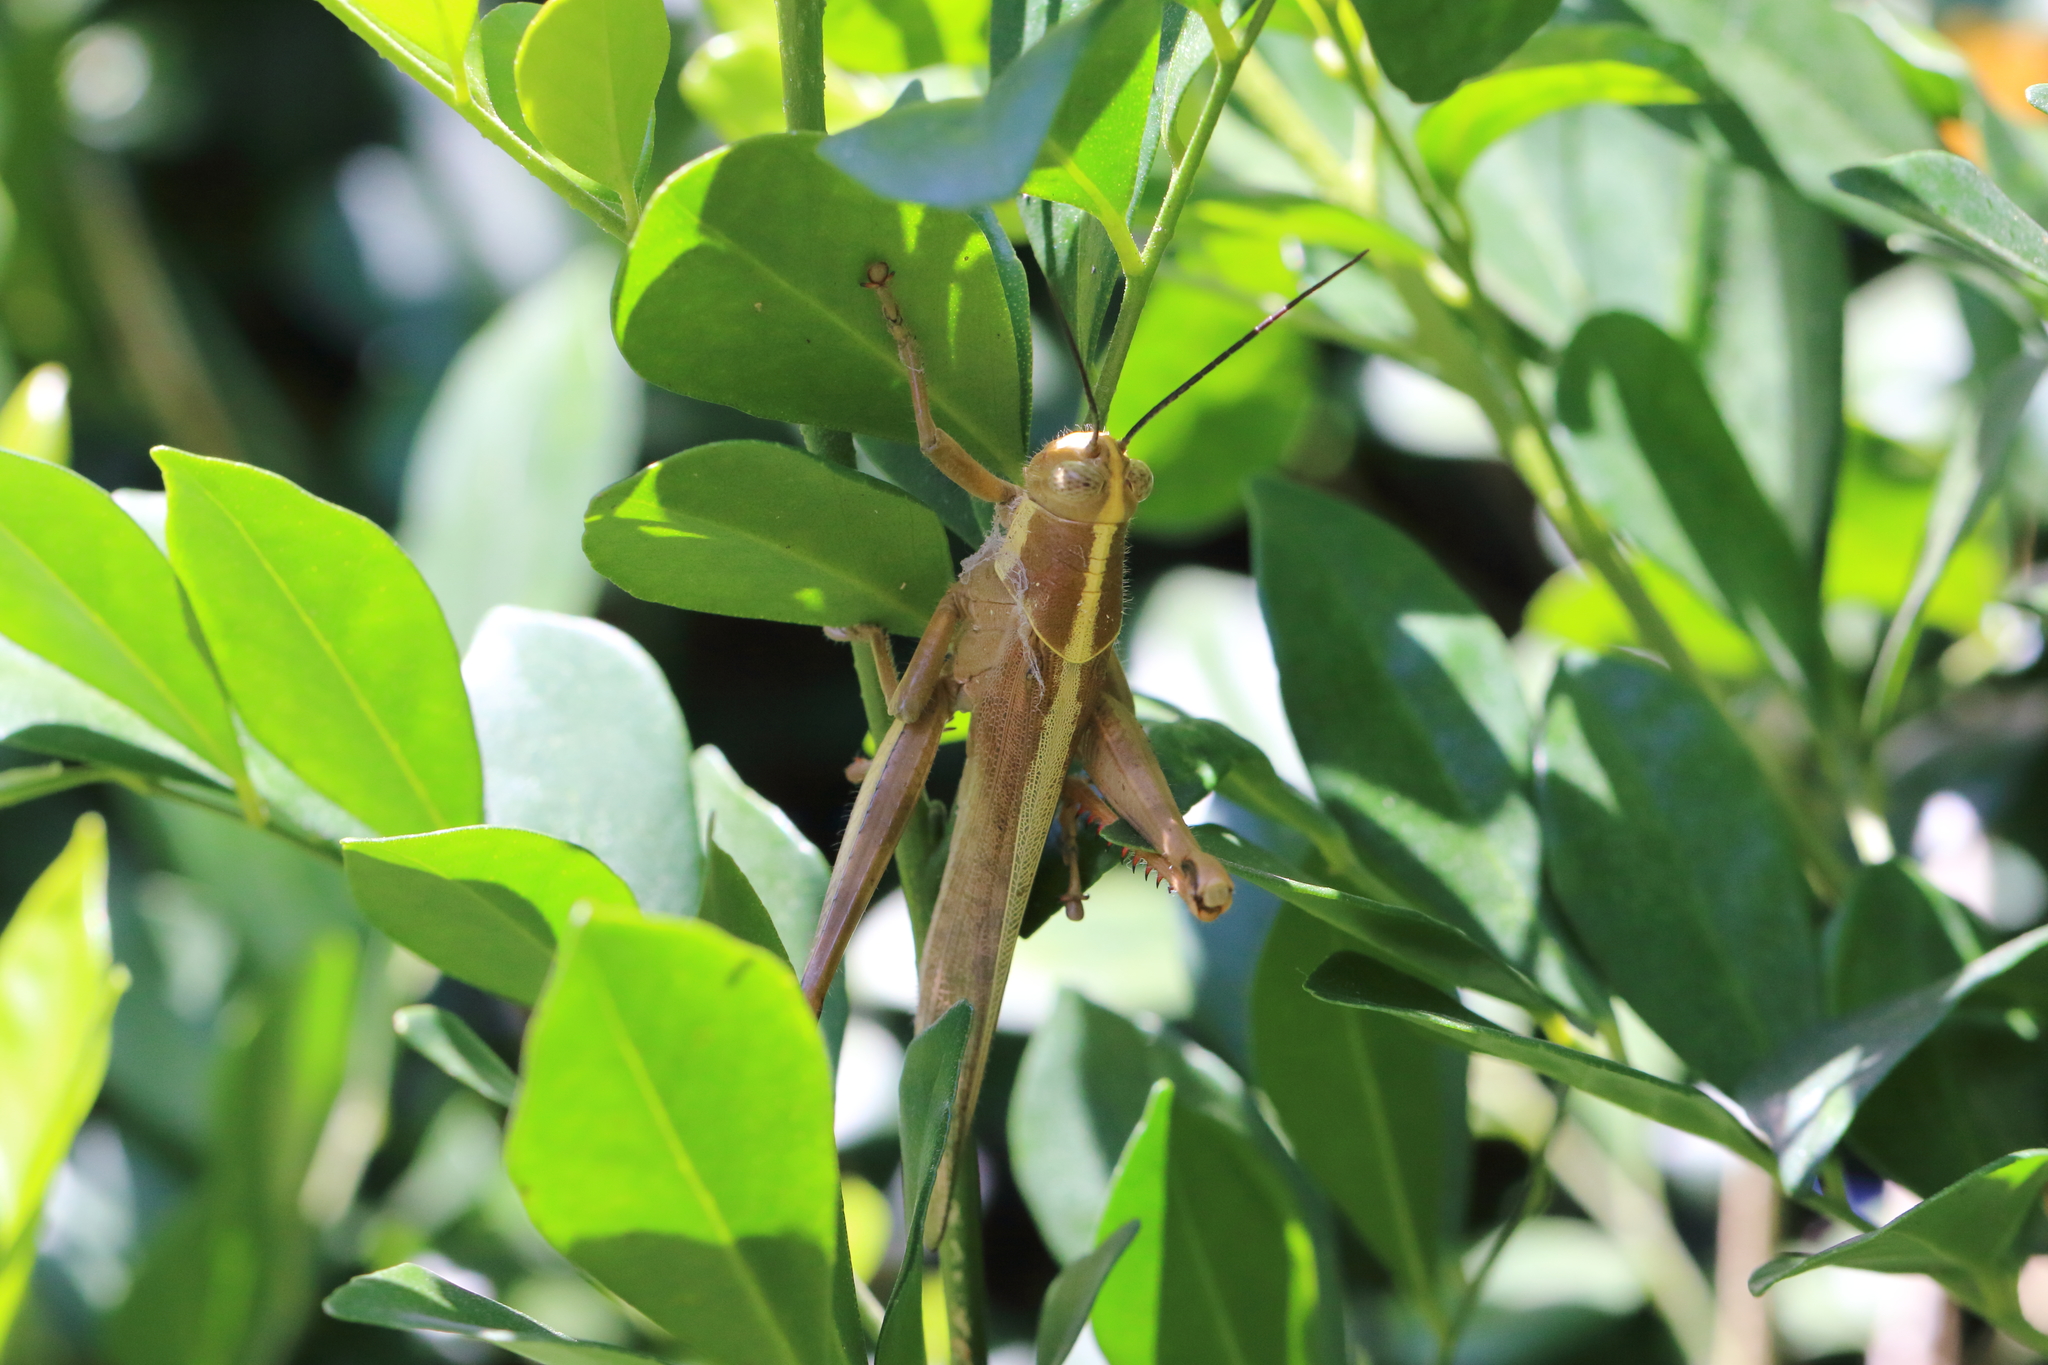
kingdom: Animalia
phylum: Arthropoda
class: Insecta
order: Orthoptera
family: Acrididae
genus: Valanga
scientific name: Valanga irregularis
